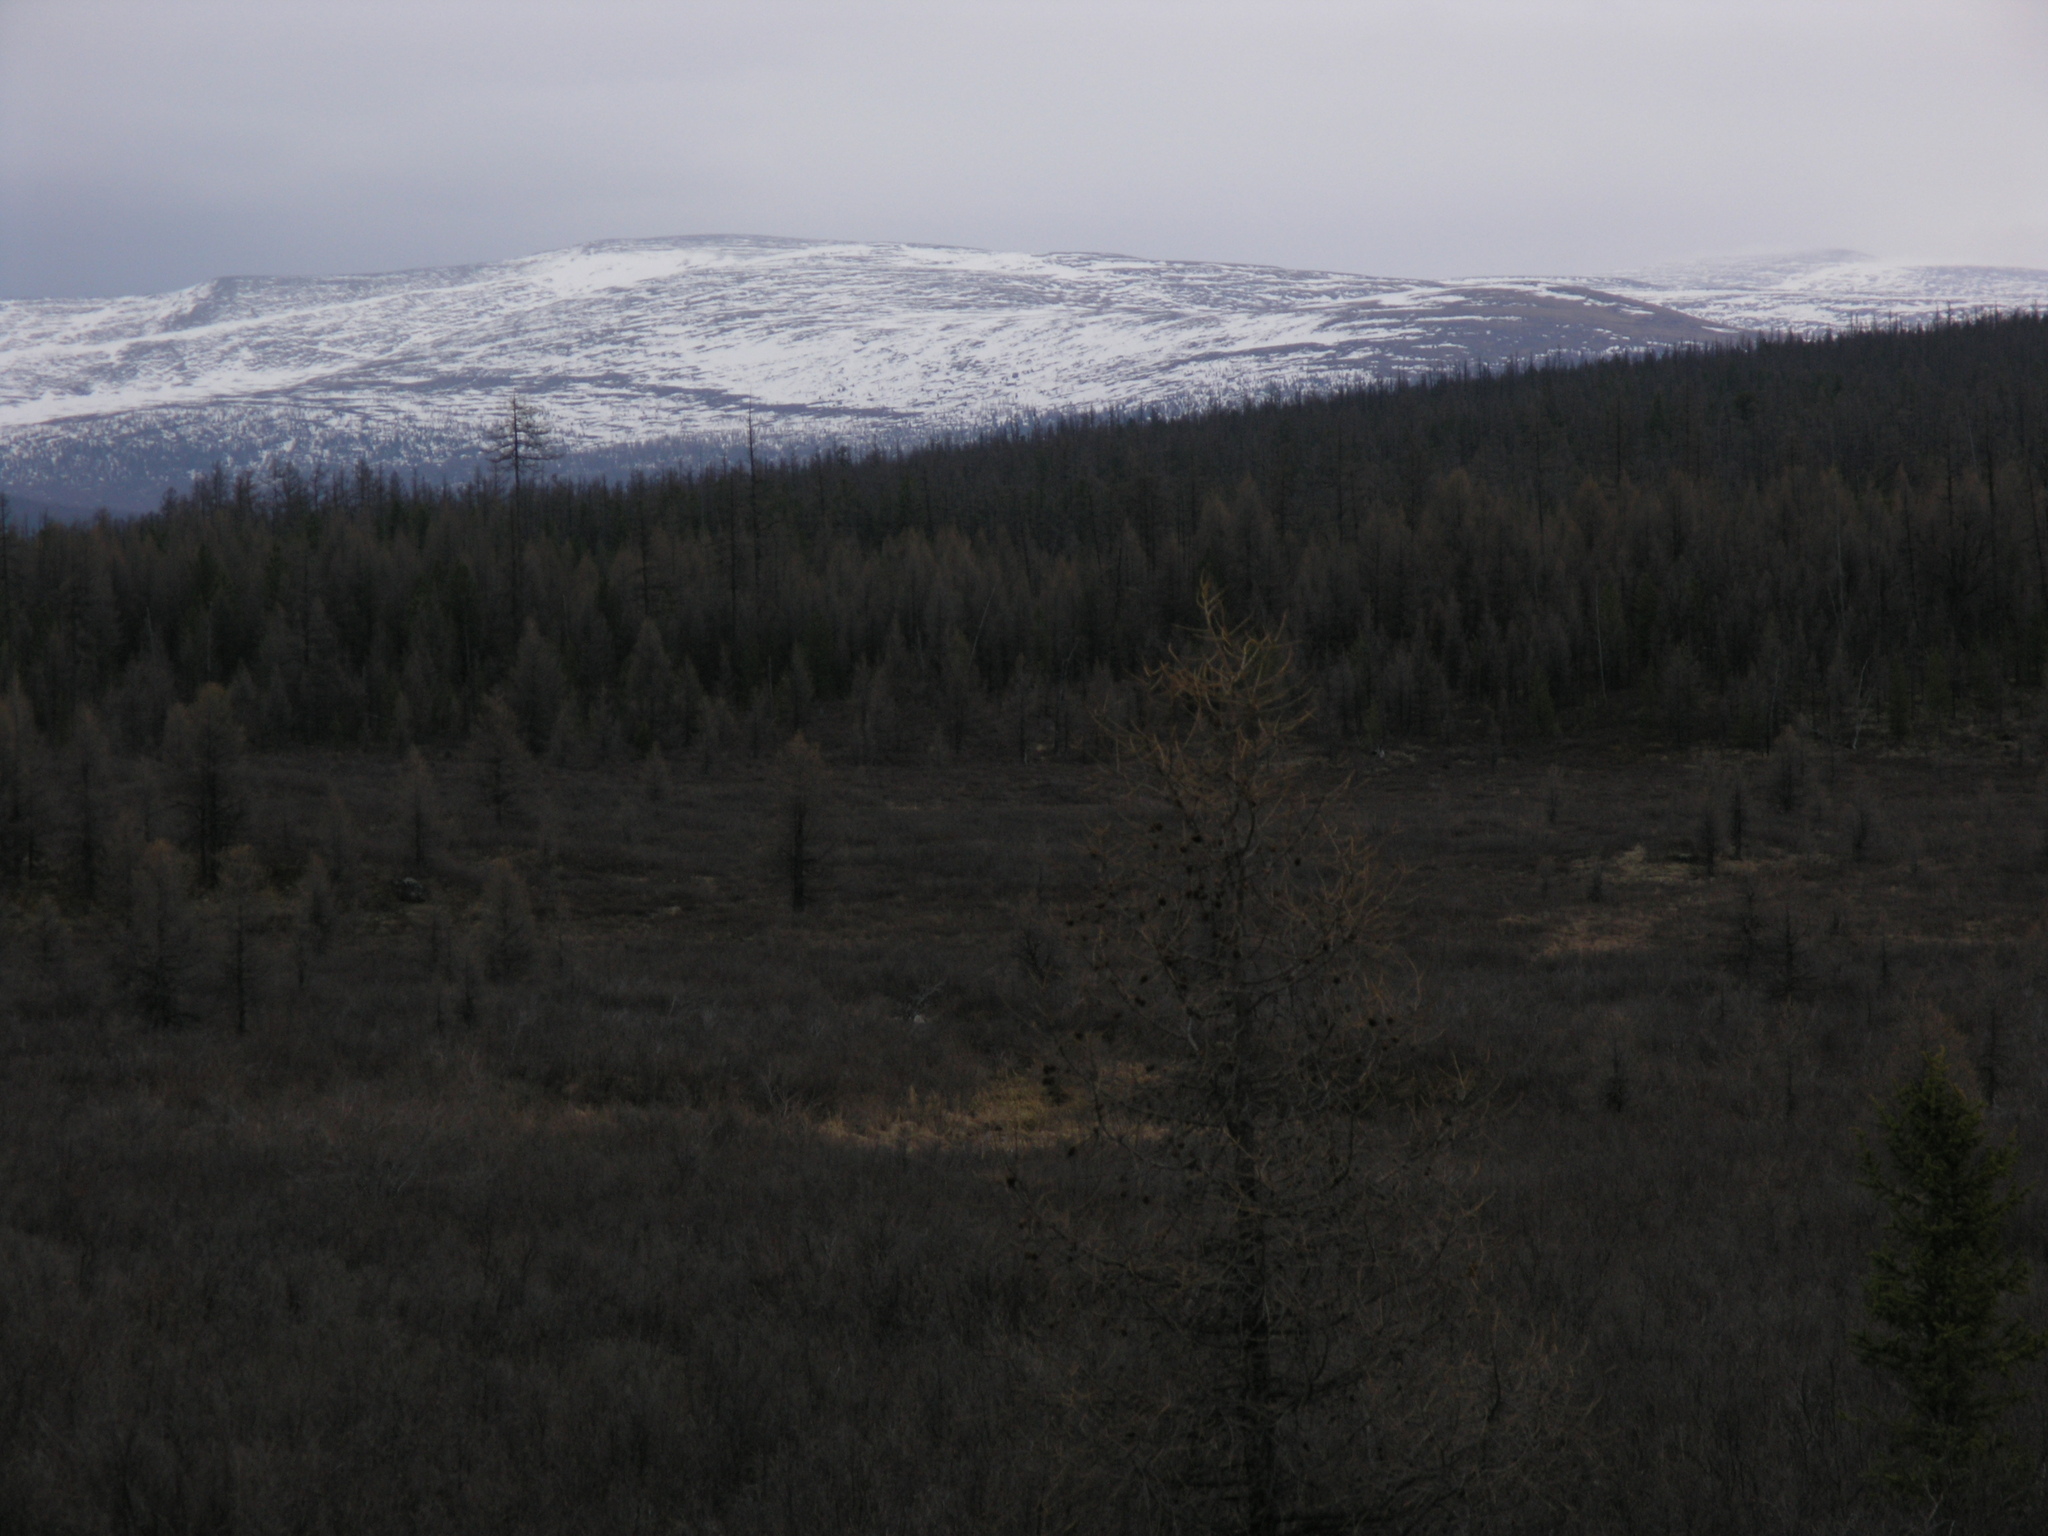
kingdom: Plantae
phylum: Tracheophyta
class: Pinopsida
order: Pinales
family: Pinaceae
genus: Larix
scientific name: Larix sibirica
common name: Siberian larch
